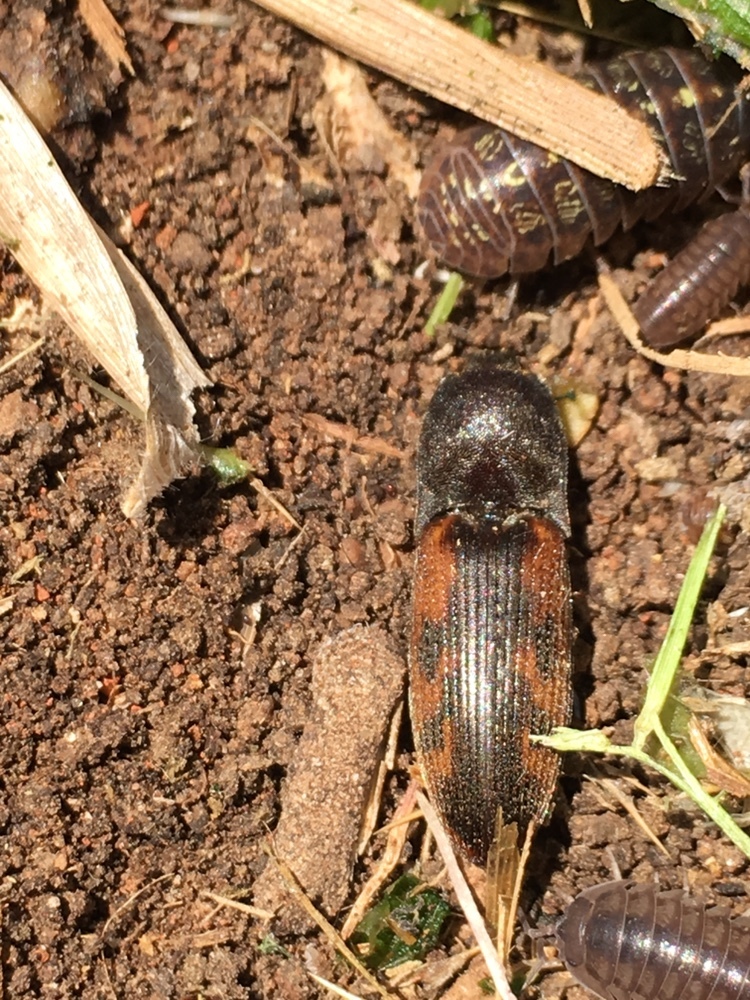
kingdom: Animalia
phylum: Arthropoda
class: Insecta
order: Coleoptera
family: Elateridae
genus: Monocrepidius
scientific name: Monocrepidius
